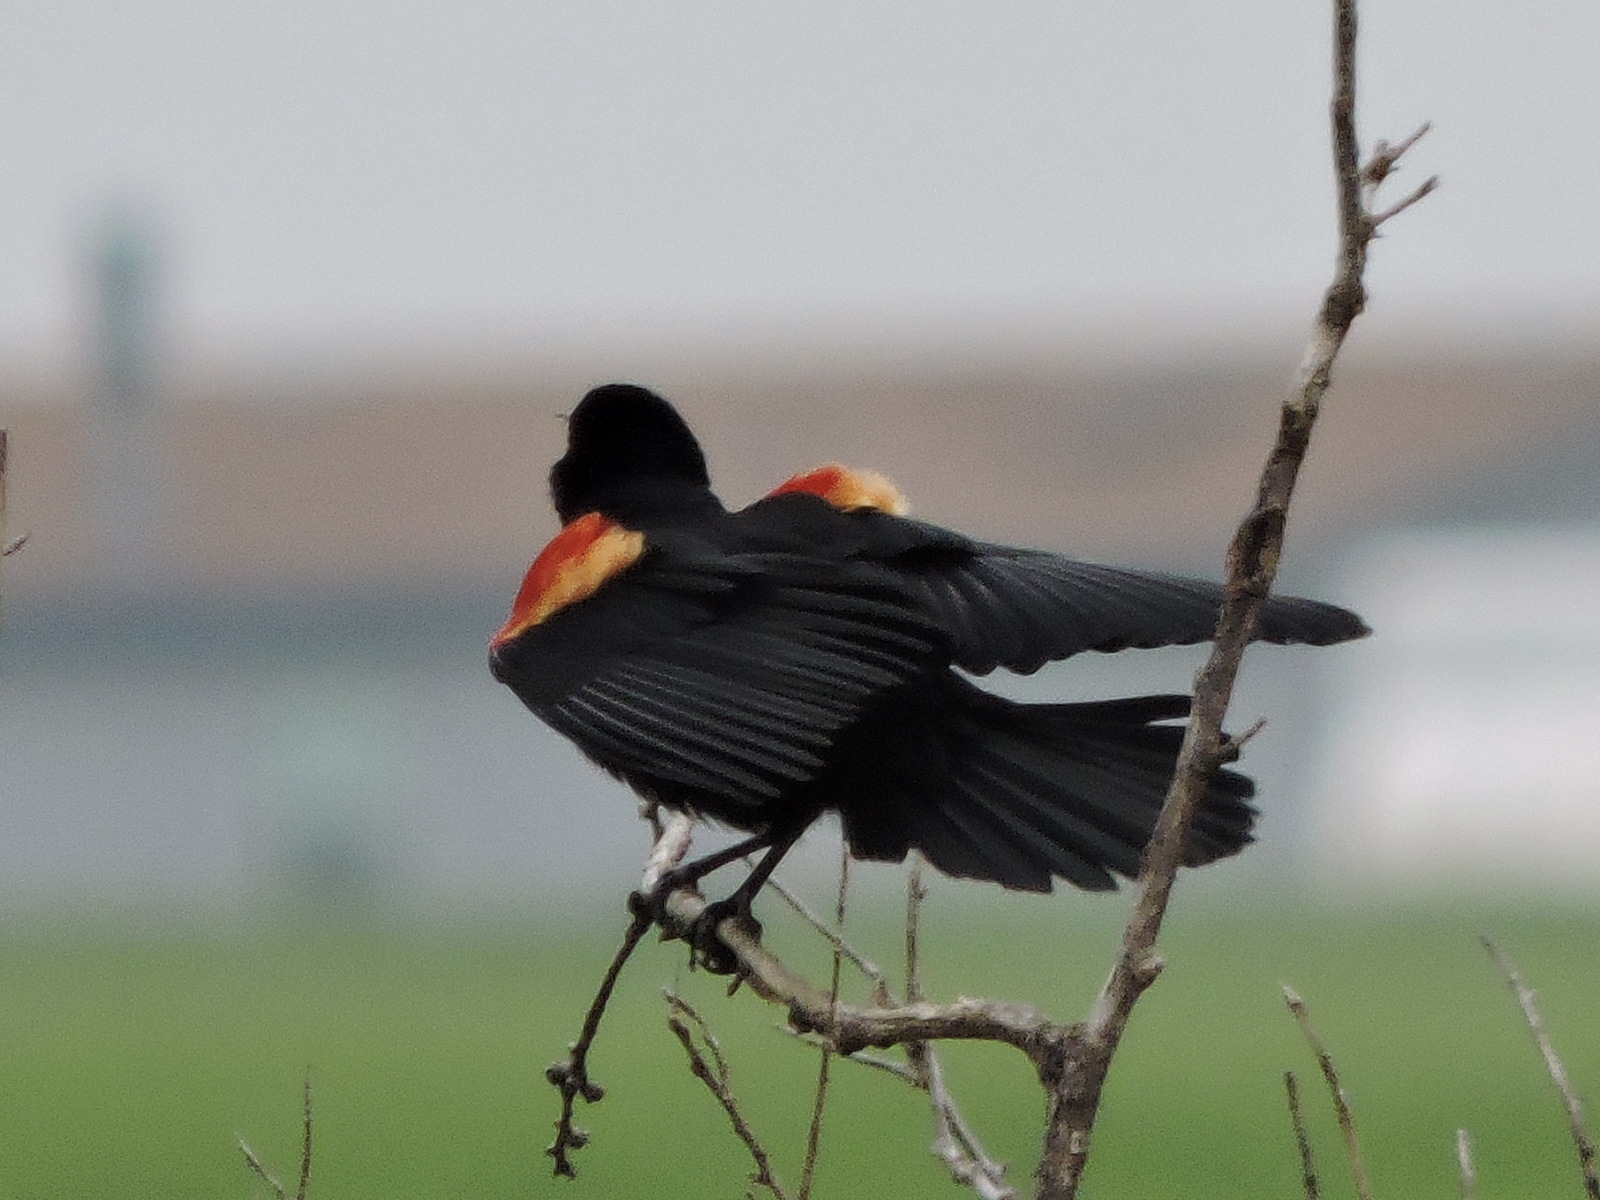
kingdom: Animalia
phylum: Chordata
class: Aves
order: Passeriformes
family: Icteridae
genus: Agelaius
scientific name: Agelaius phoeniceus
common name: Red-winged blackbird
